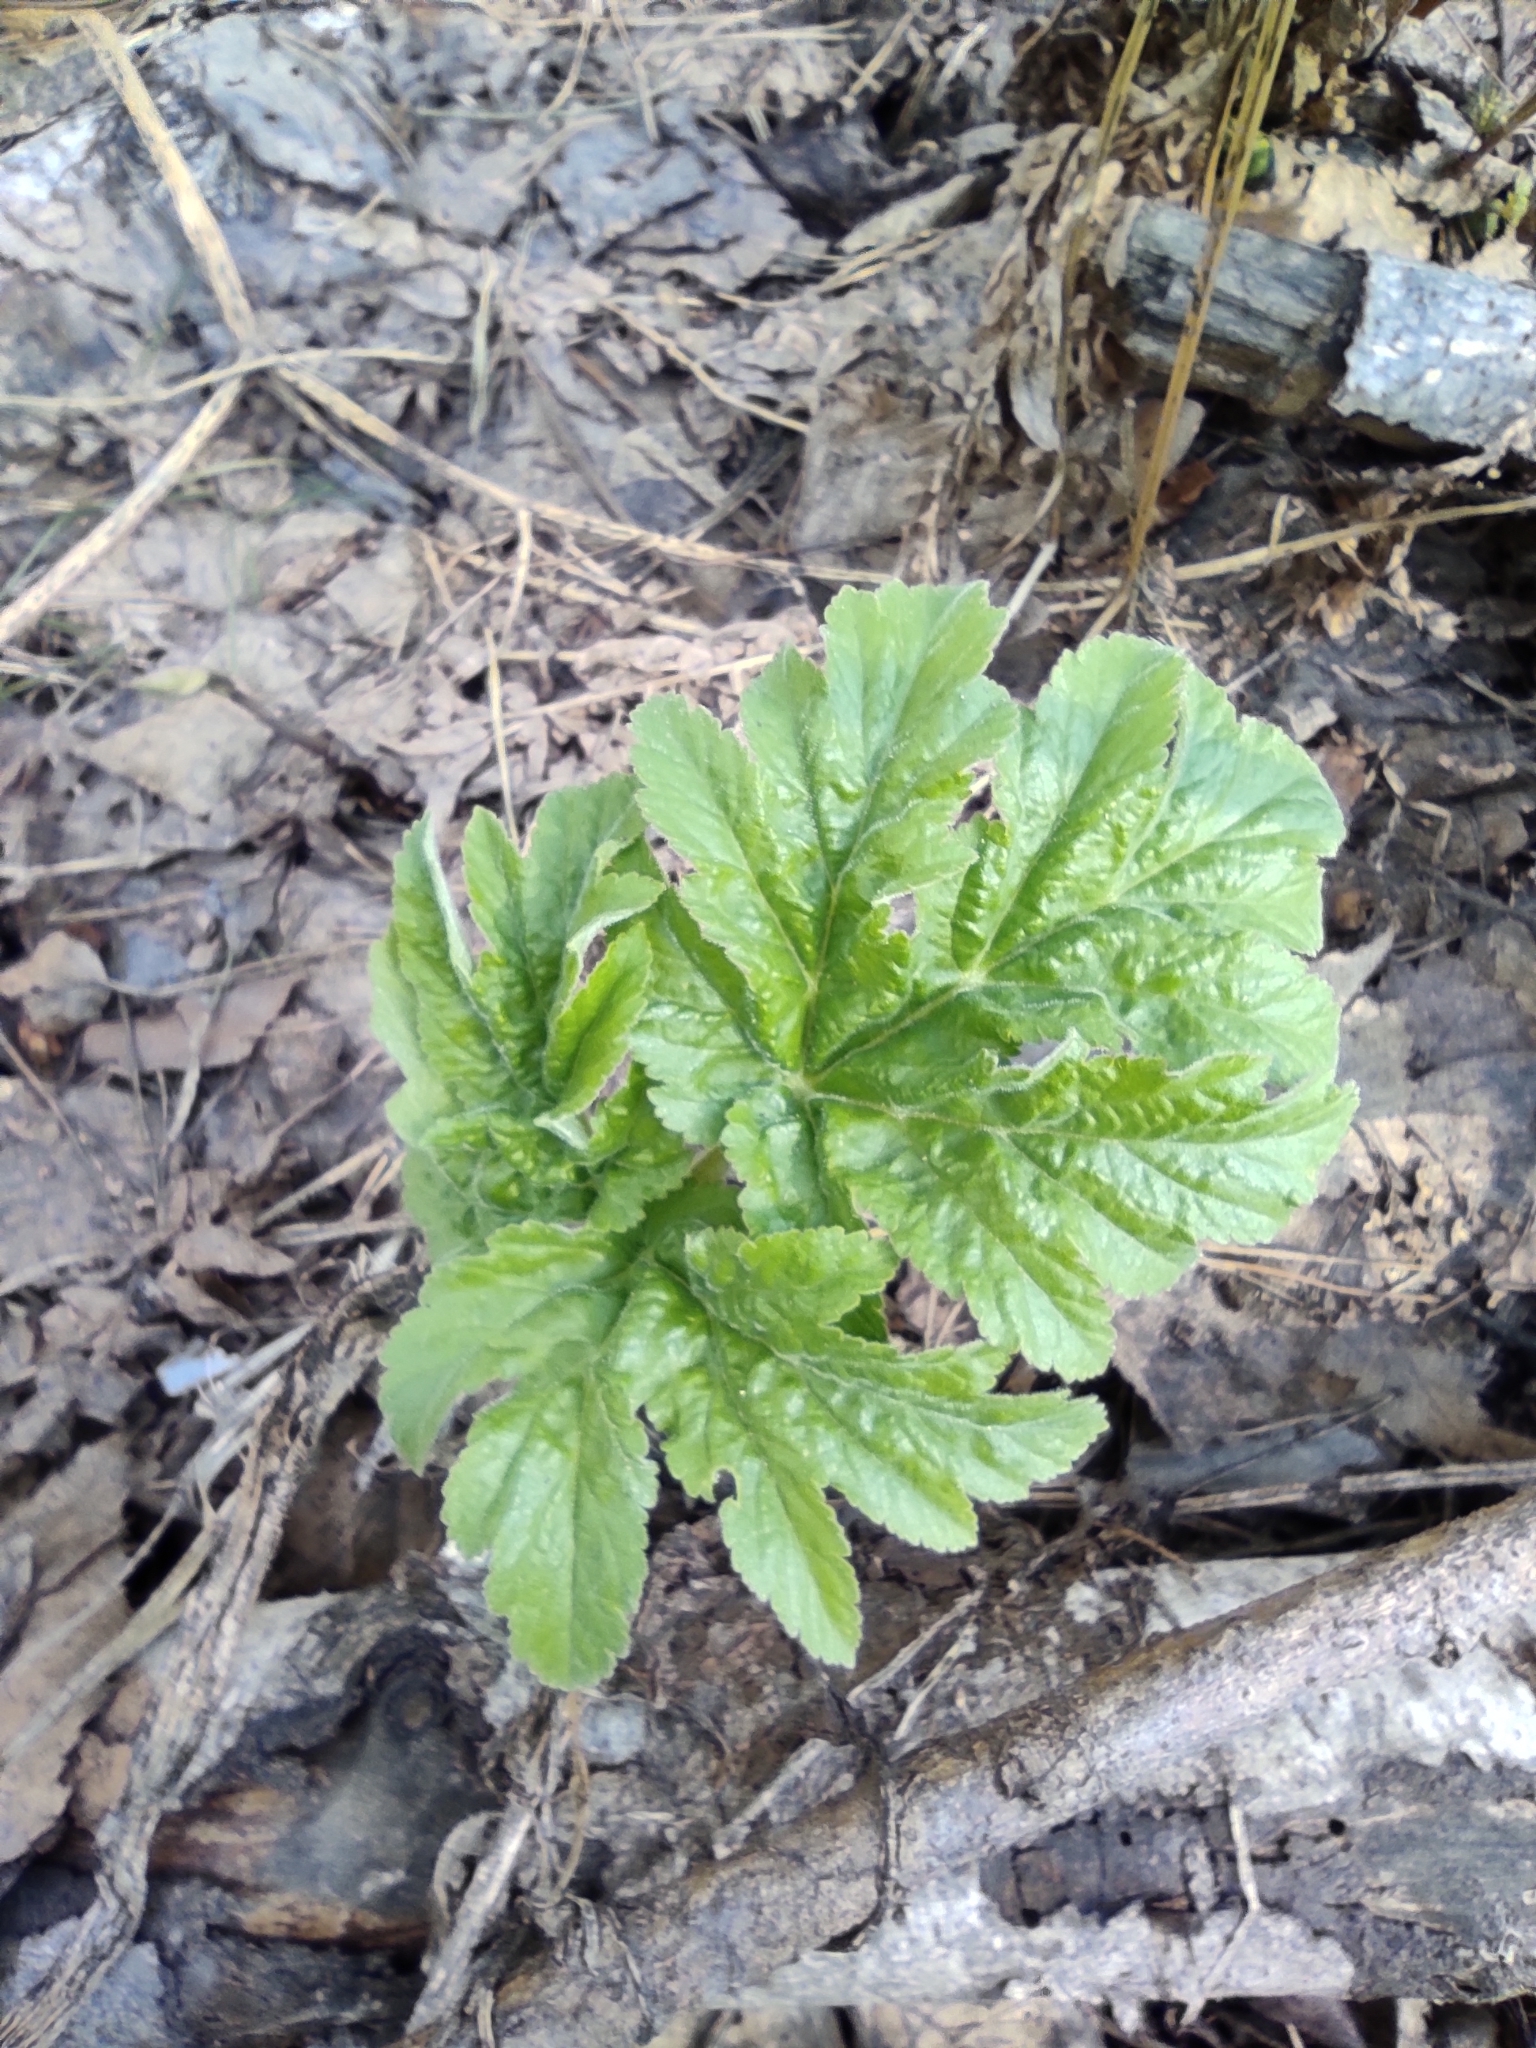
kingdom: Plantae
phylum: Tracheophyta
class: Magnoliopsida
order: Apiales
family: Apiaceae
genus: Heracleum
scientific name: Heracleum dissectum
